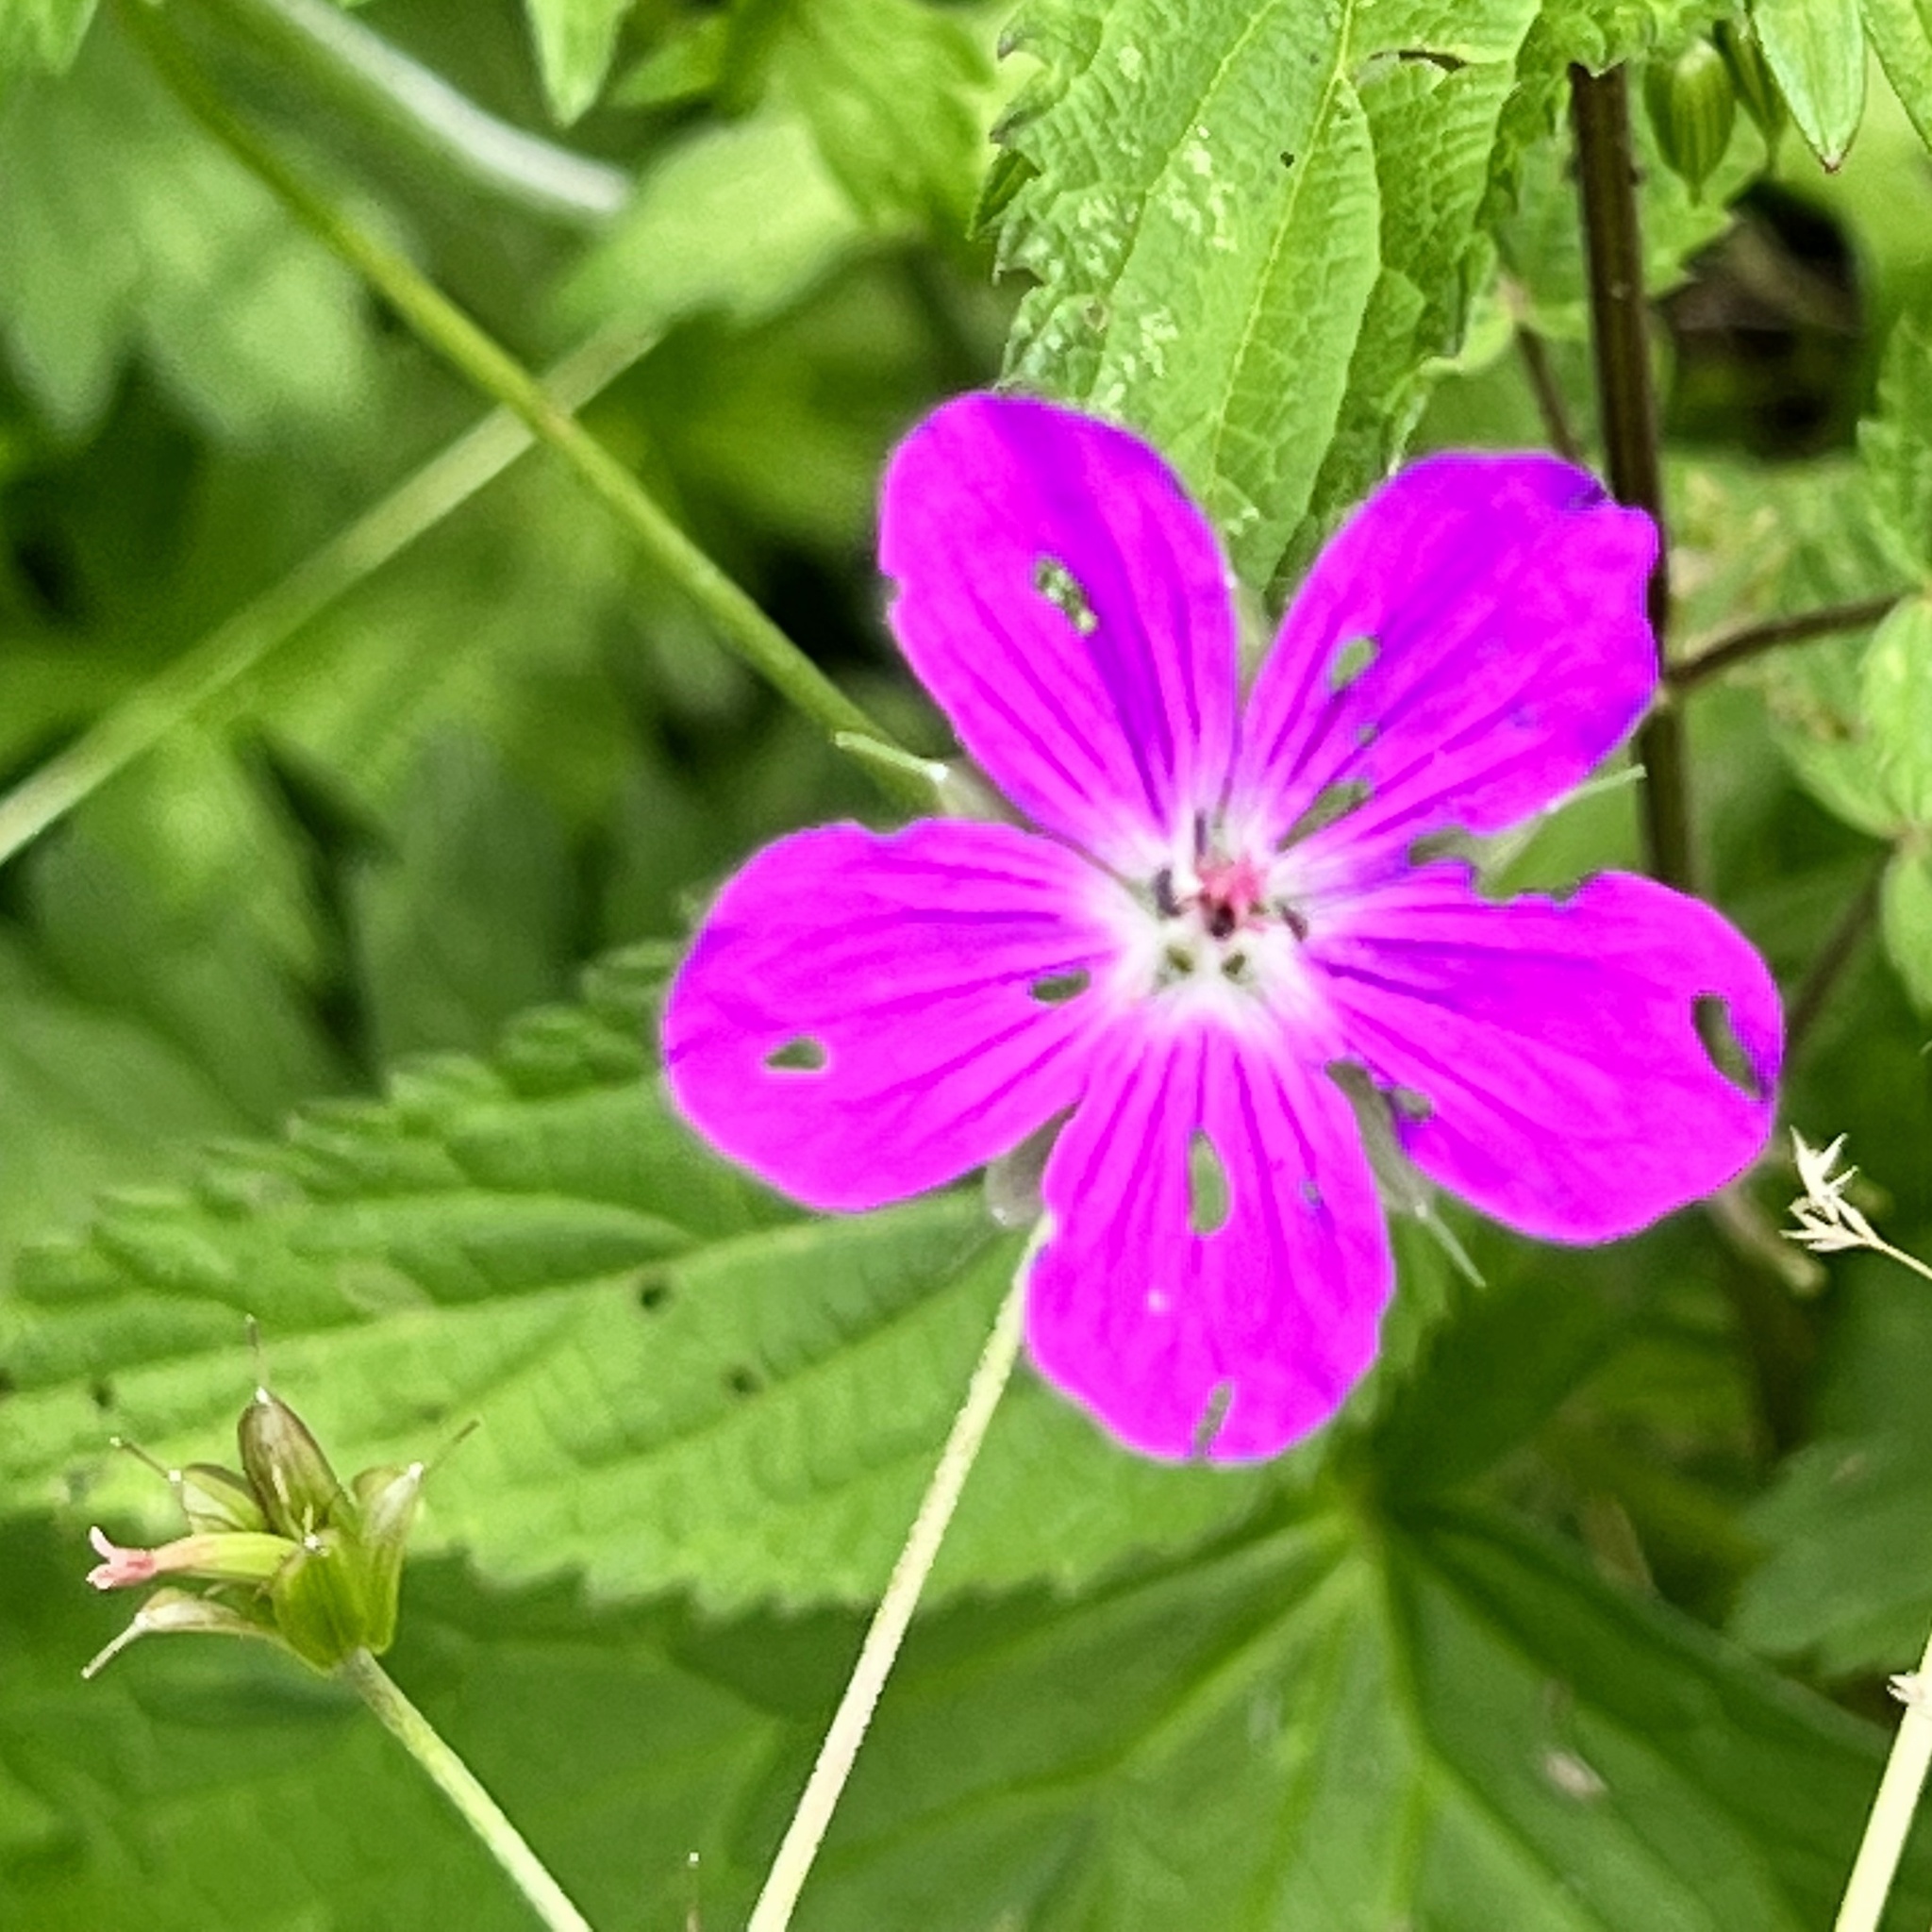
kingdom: Plantae
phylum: Tracheophyta
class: Magnoliopsida
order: Geraniales
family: Geraniaceae
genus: Geranium
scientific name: Geranium palustre
